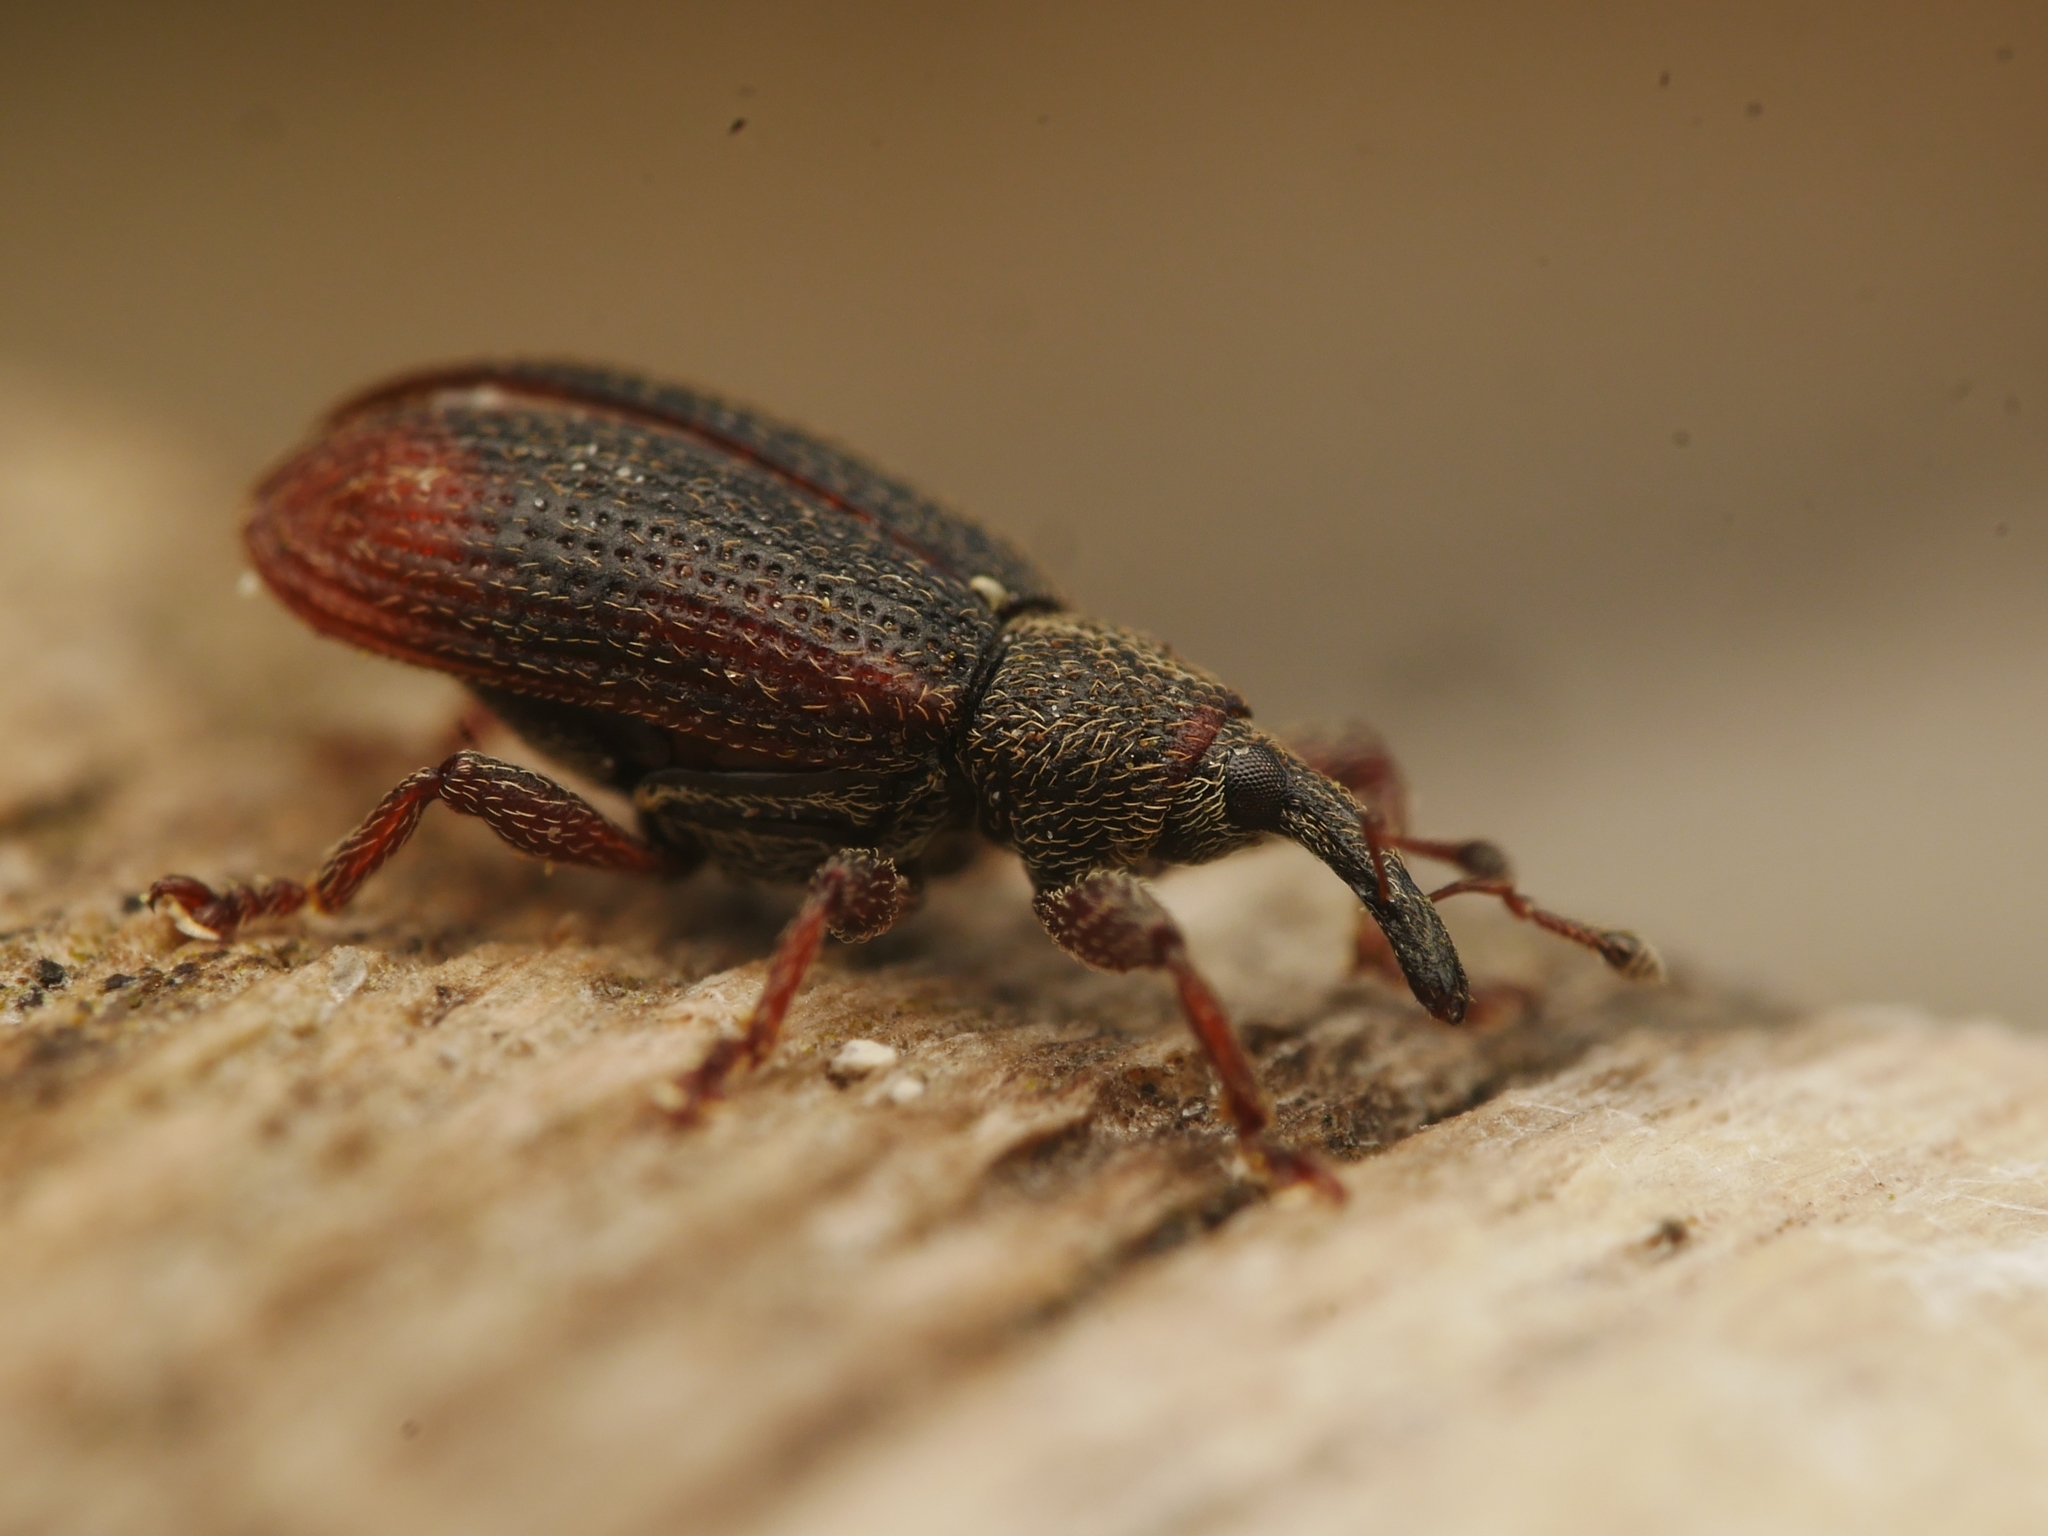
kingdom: Animalia
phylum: Arthropoda
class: Insecta
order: Coleoptera
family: Curculionidae
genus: Bradybatus
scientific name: Bradybatus kellneri
